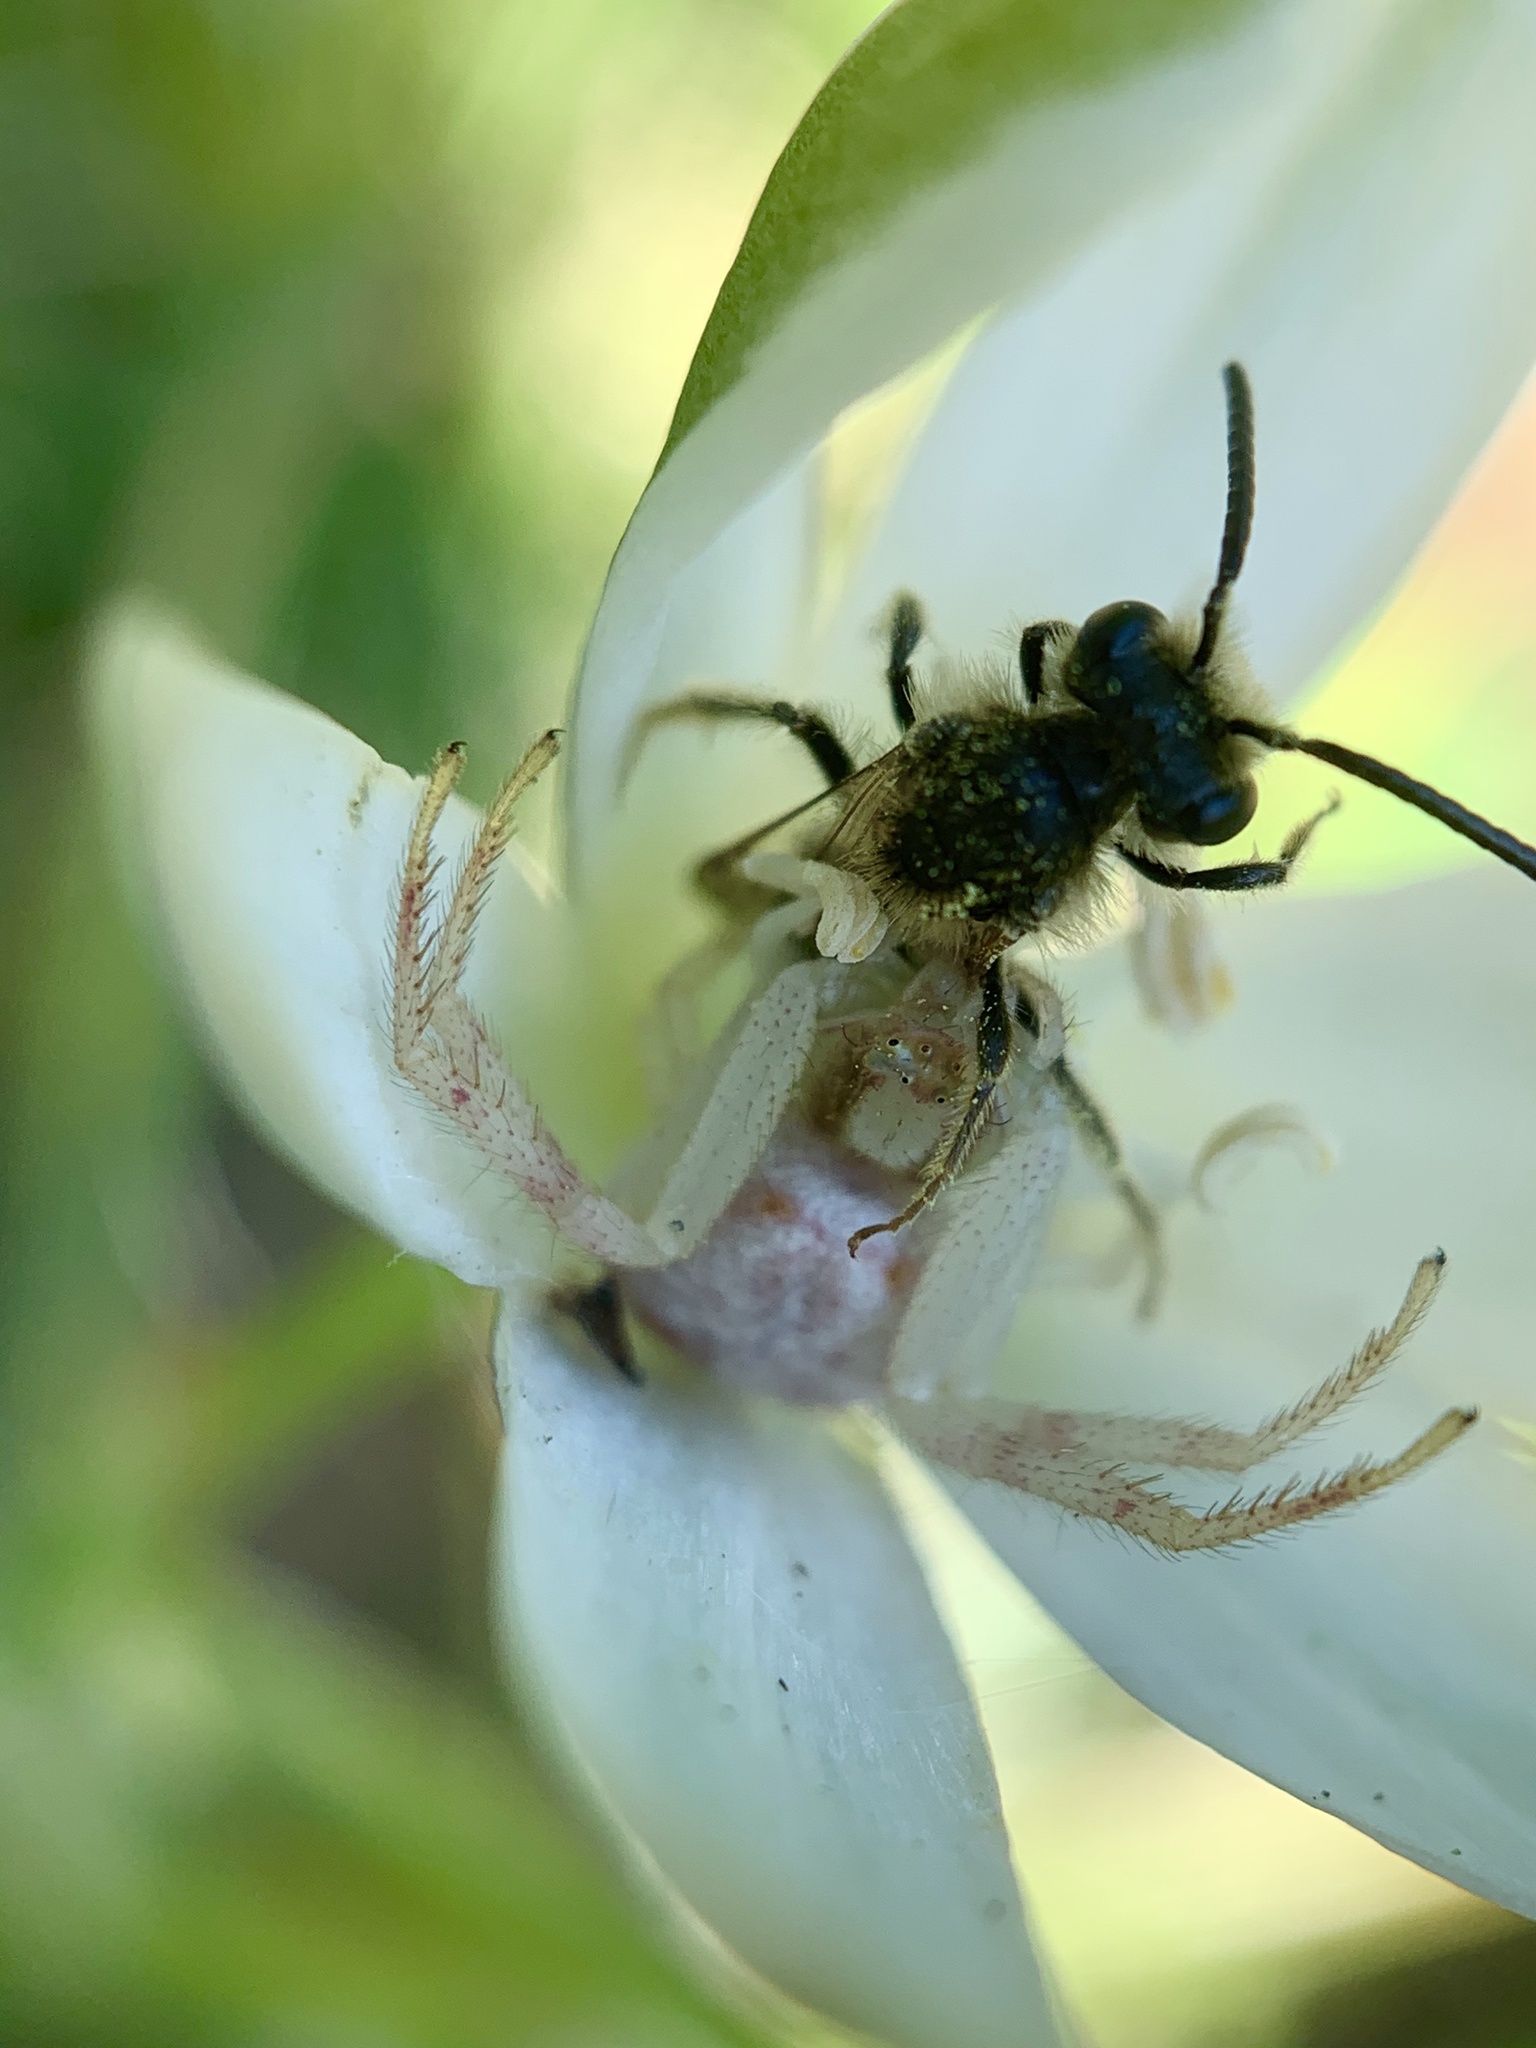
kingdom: Animalia
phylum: Arthropoda
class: Insecta
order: Hymenoptera
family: Andrenidae
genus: Andrena
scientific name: Andrena
